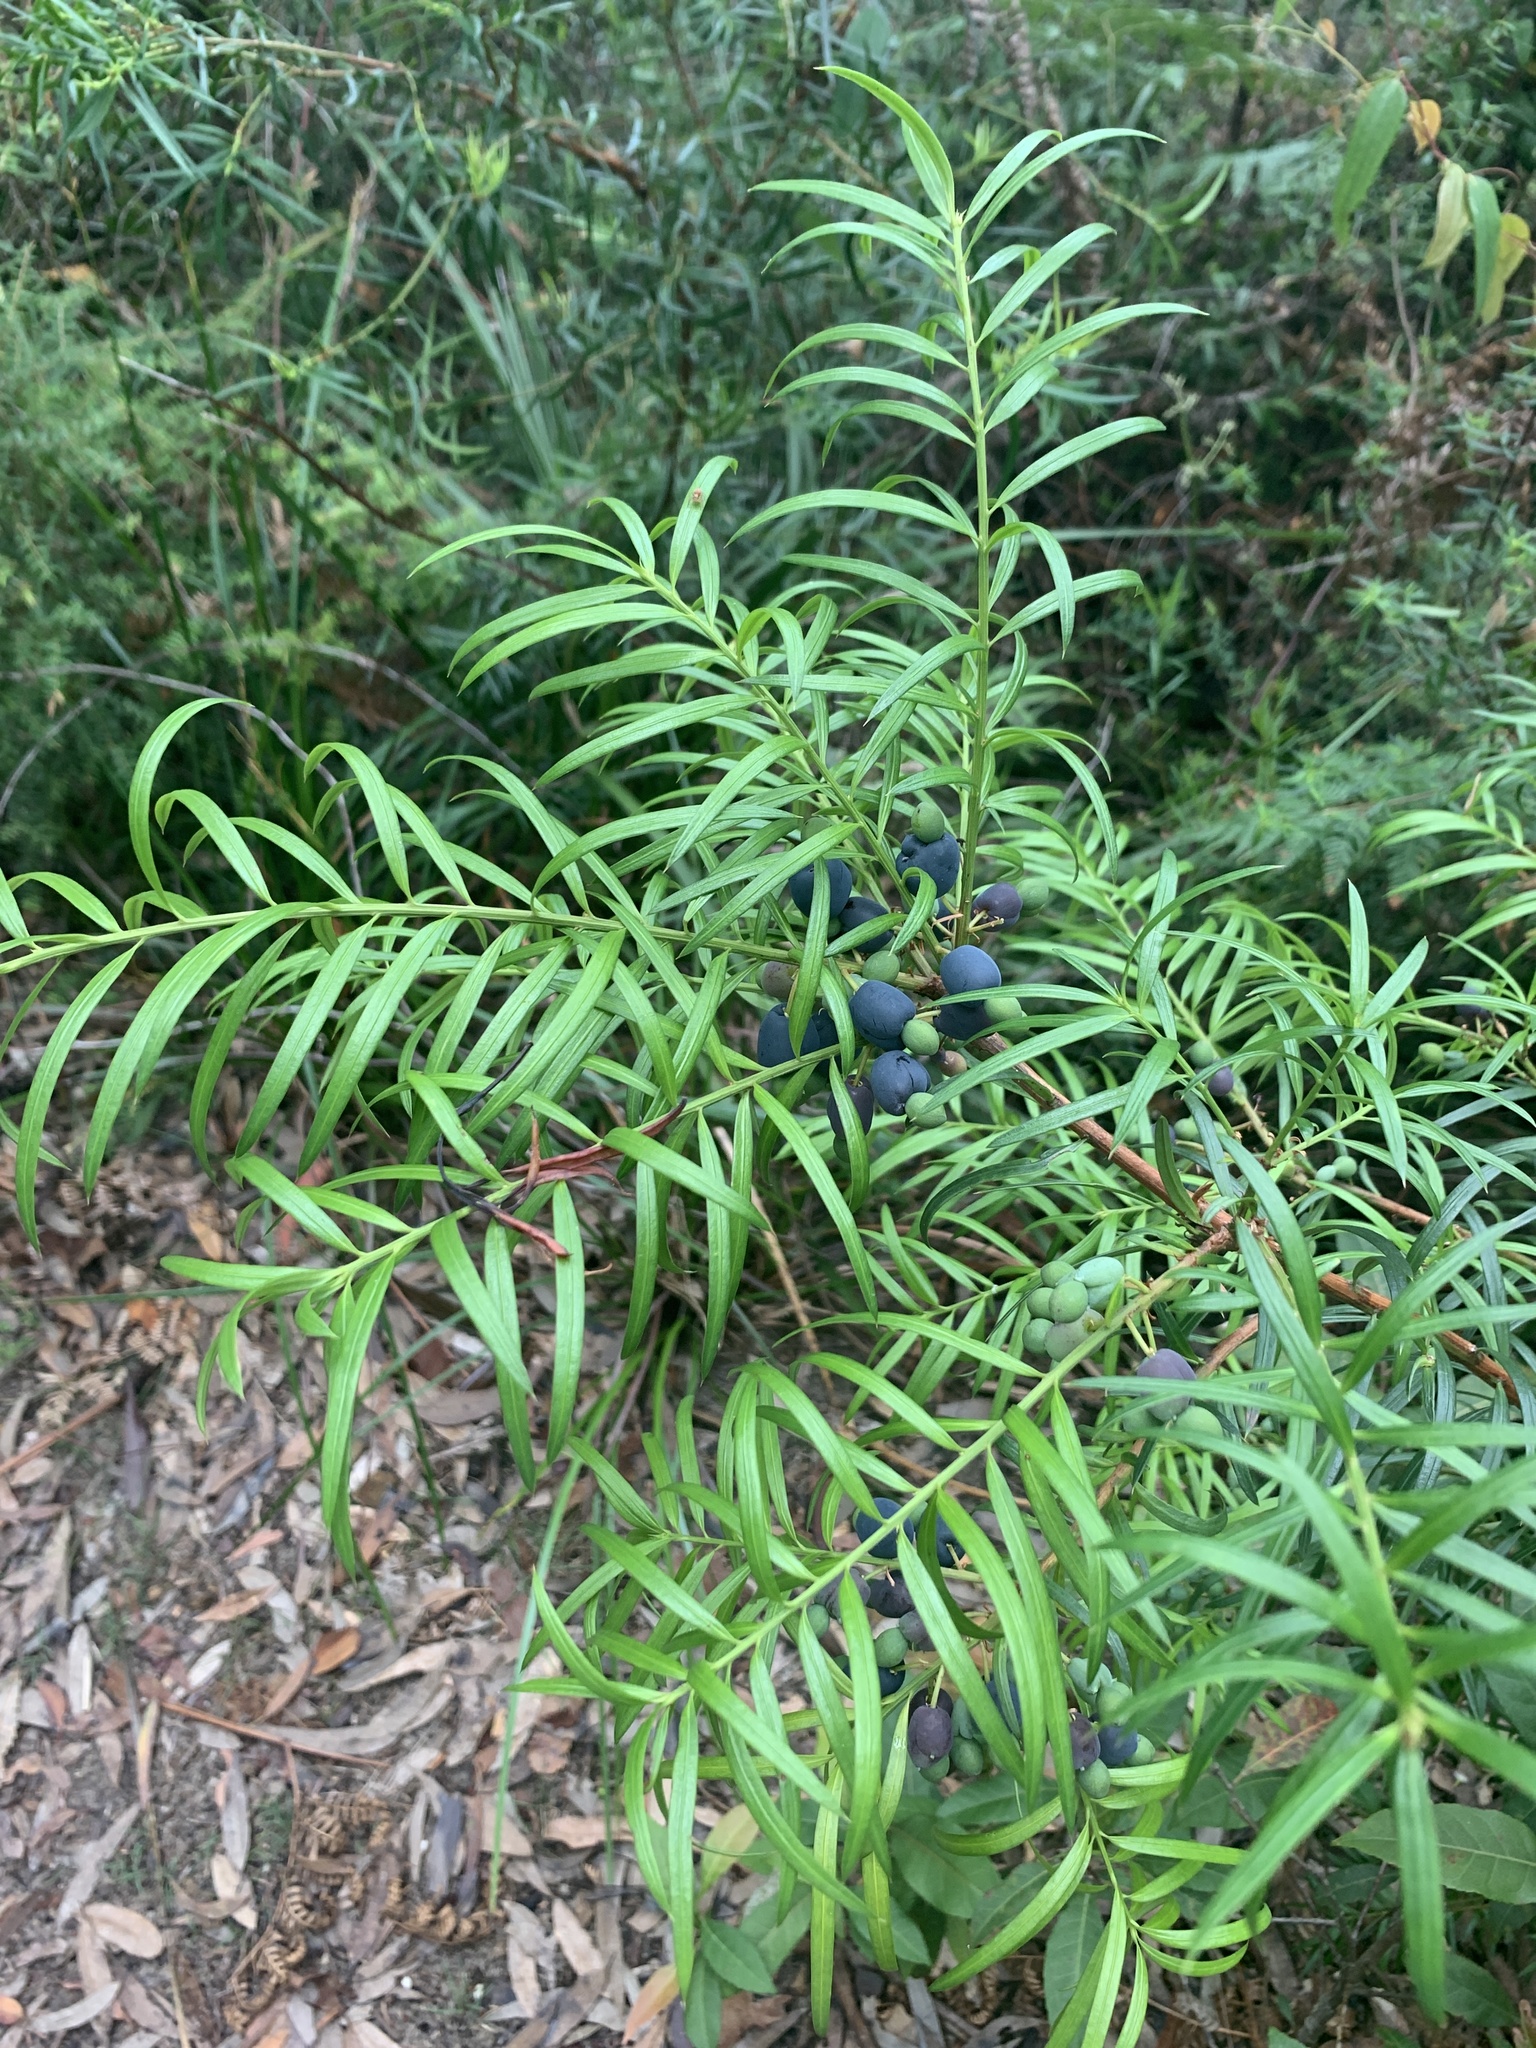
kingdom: Plantae
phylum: Tracheophyta
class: Pinopsida
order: Pinales
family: Podocarpaceae
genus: Podocarpus
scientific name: Podocarpus spinulosus
